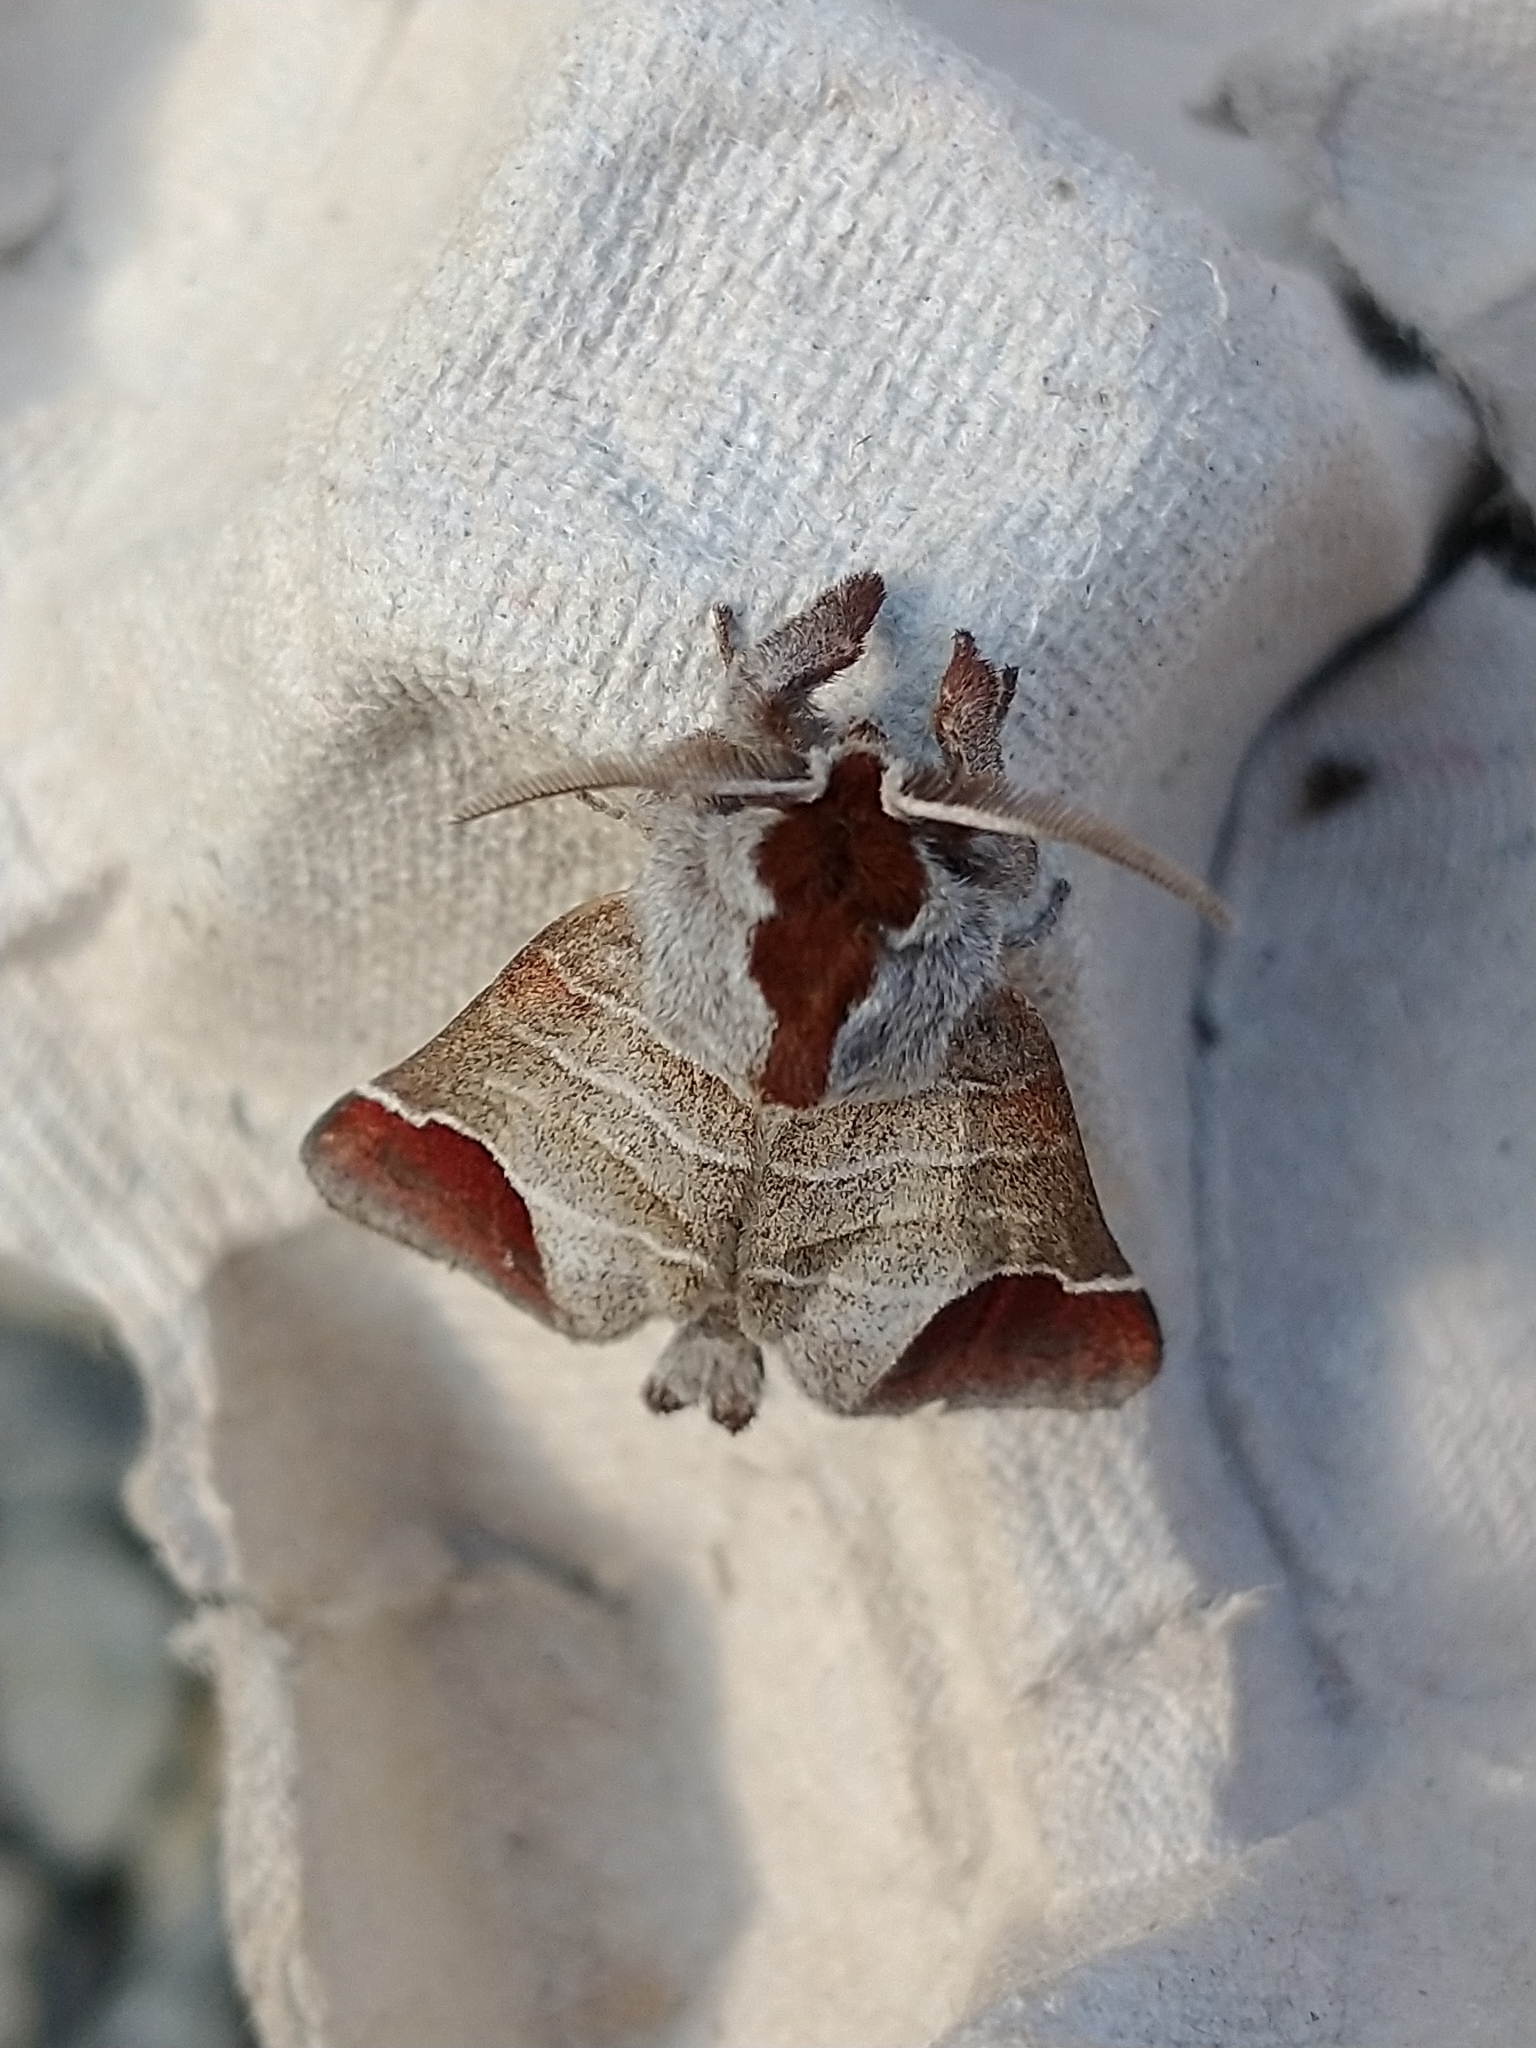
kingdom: Animalia
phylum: Arthropoda
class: Insecta
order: Lepidoptera
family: Notodontidae
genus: Clostera
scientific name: Clostera curtula
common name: Chocolate-tip
